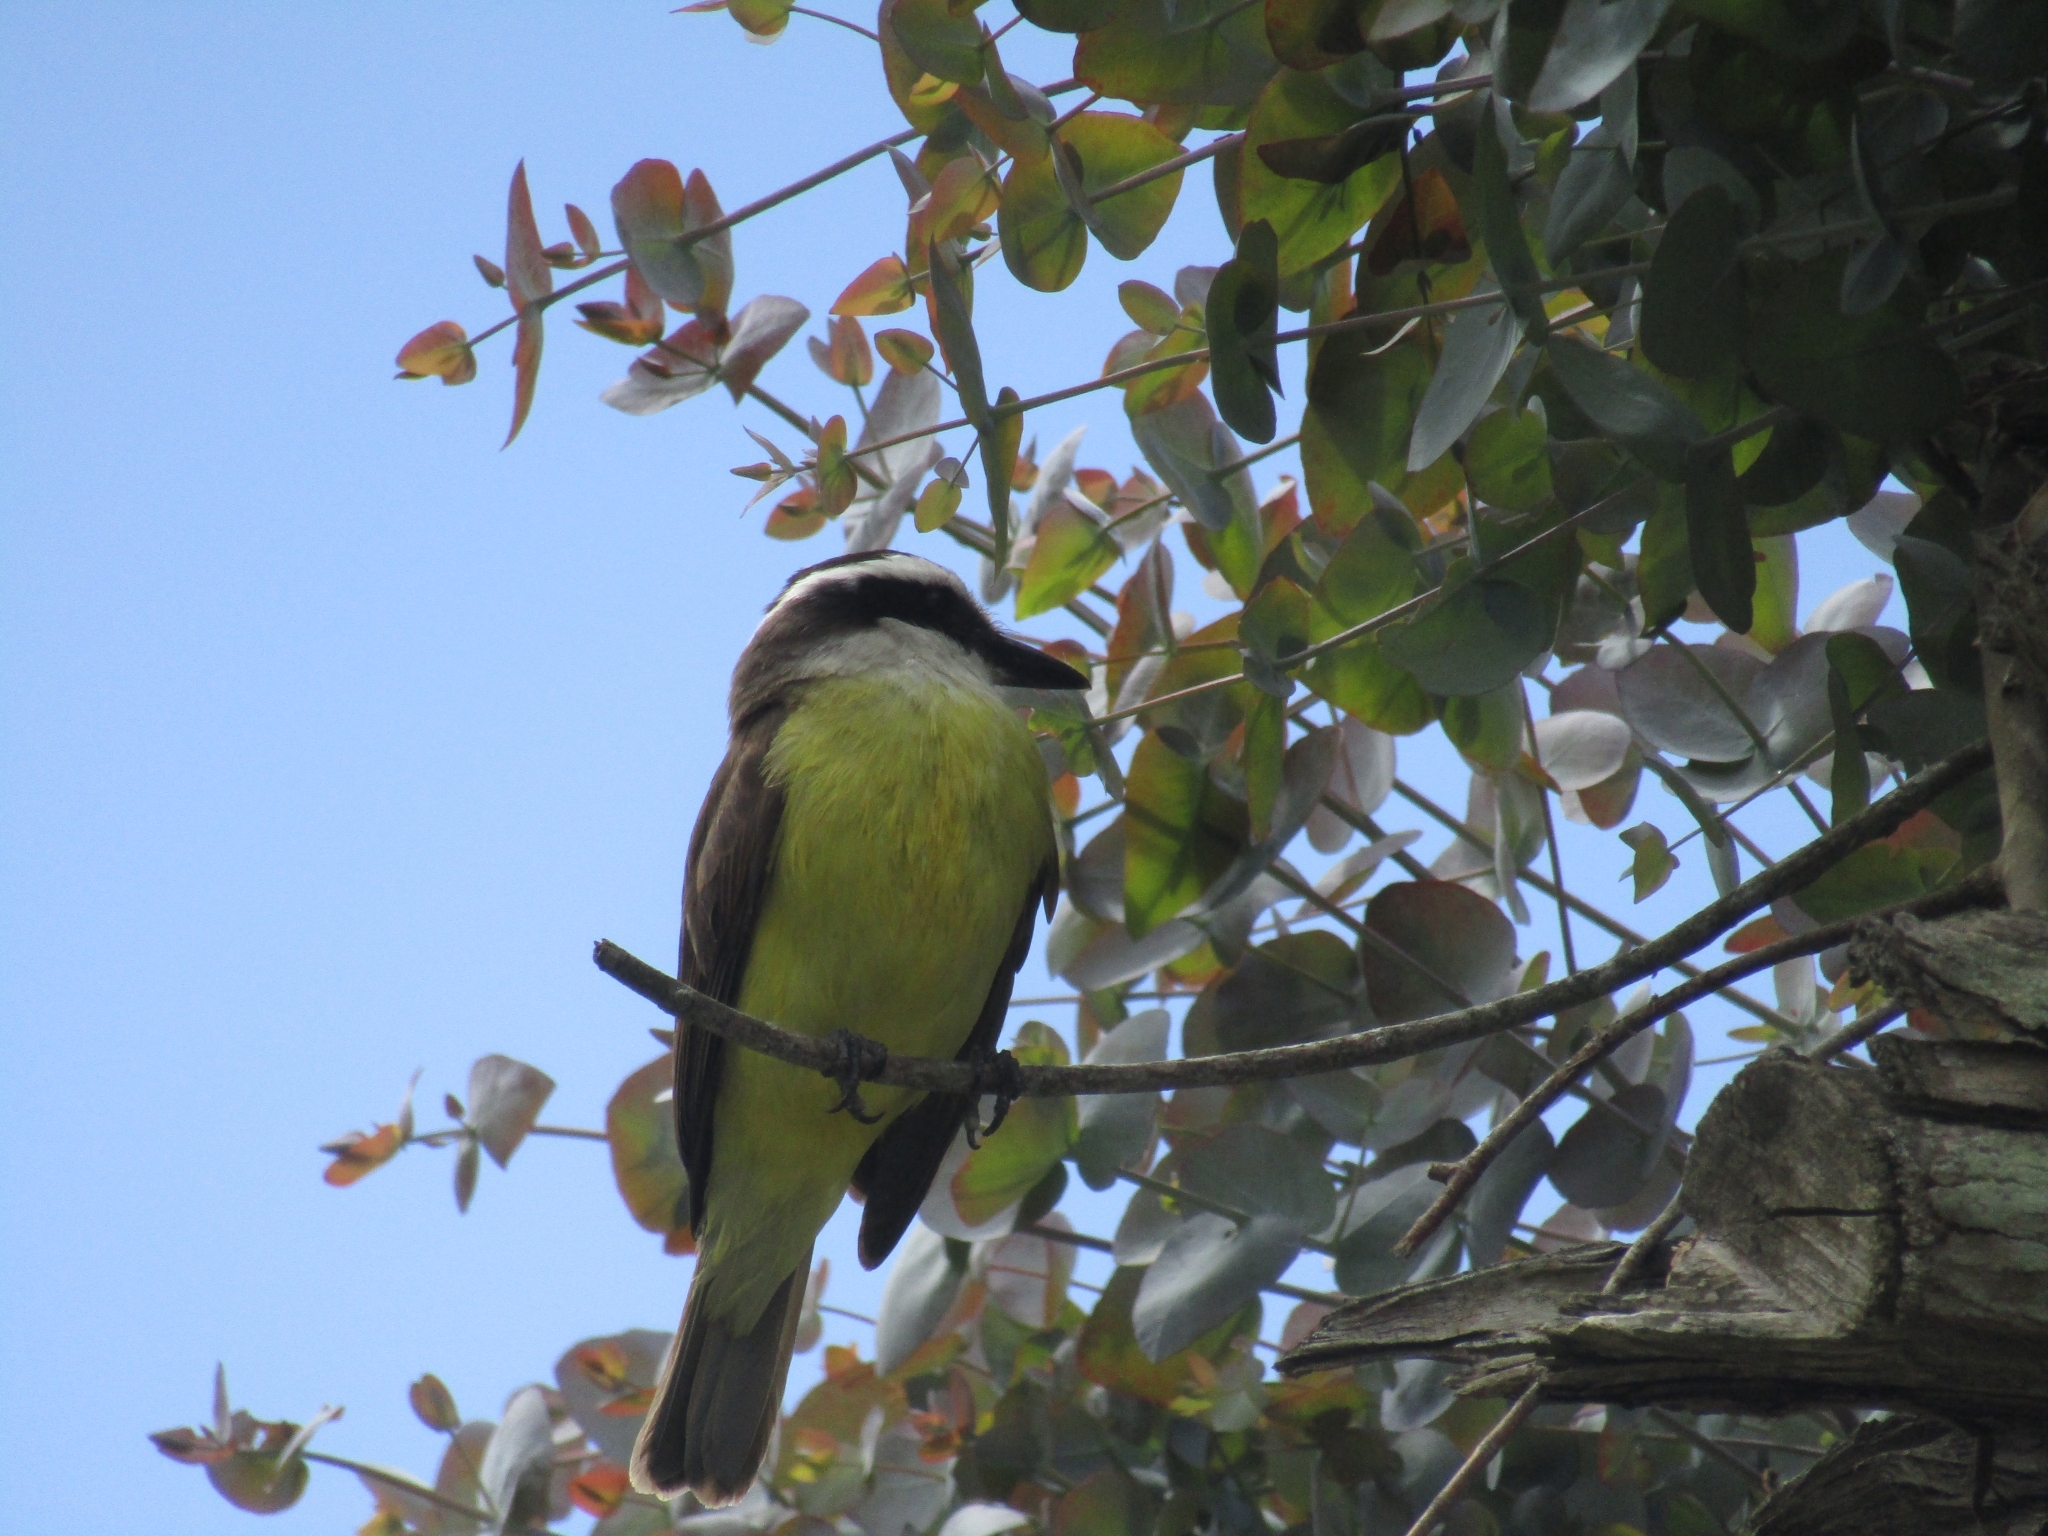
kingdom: Animalia
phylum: Chordata
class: Aves
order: Passeriformes
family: Tyrannidae
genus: Pitangus
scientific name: Pitangus sulphuratus
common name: Great kiskadee
